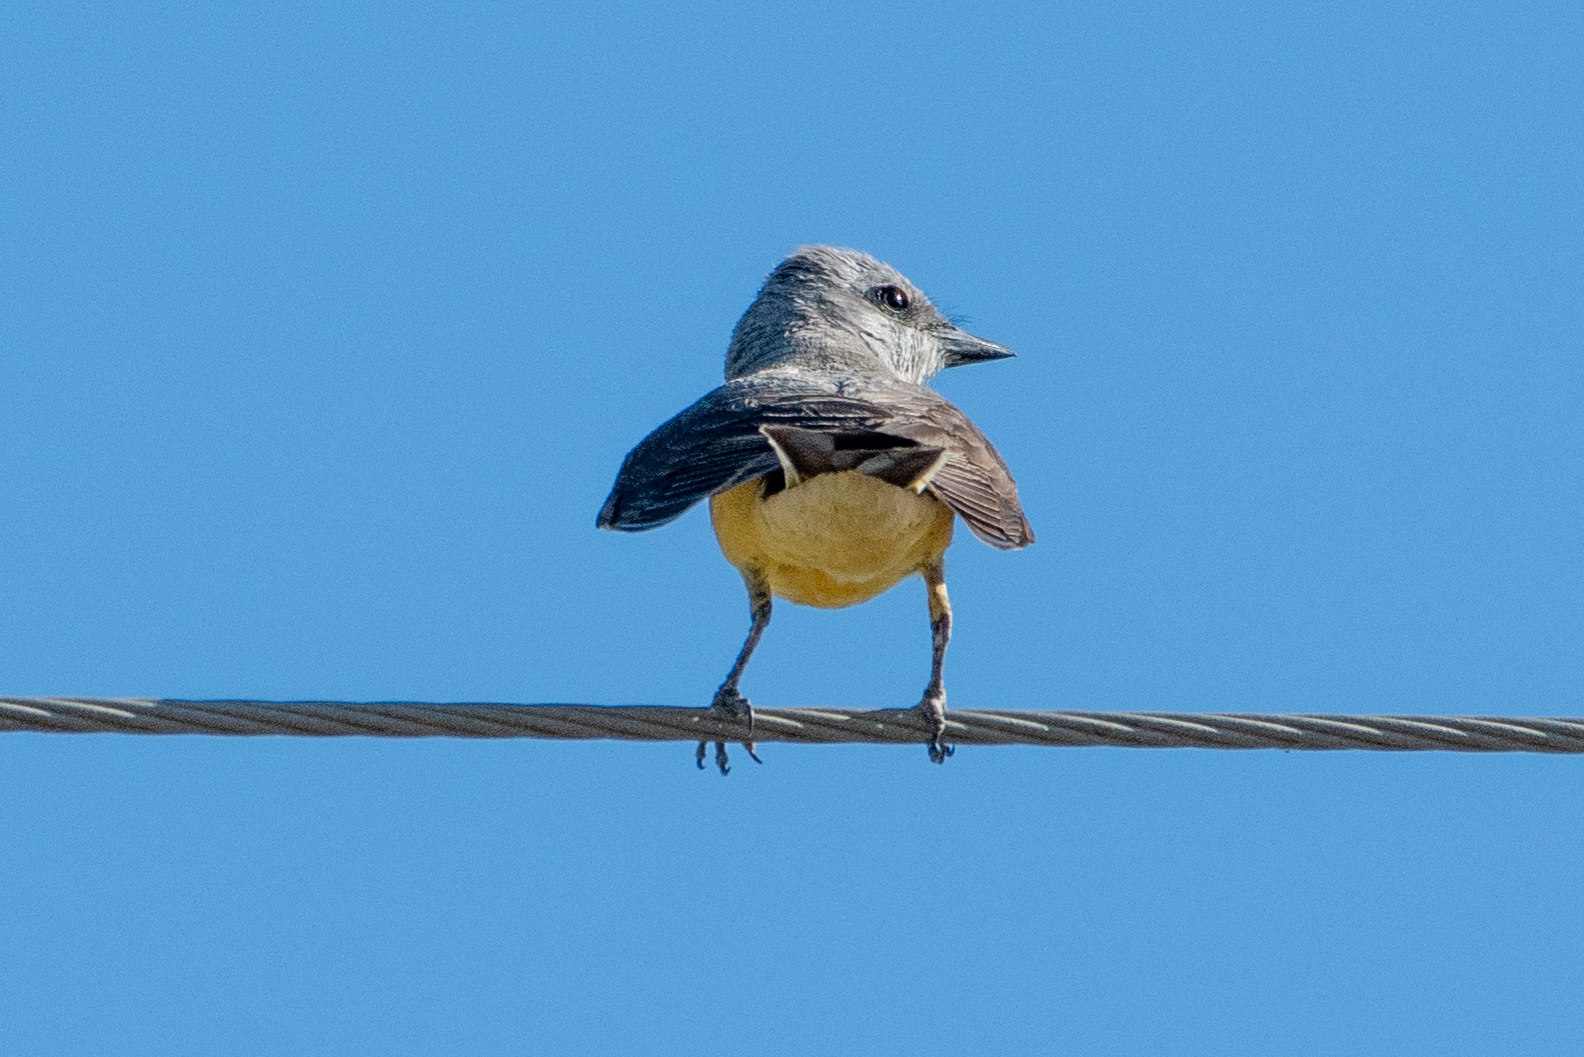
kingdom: Animalia
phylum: Chordata
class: Aves
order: Passeriformes
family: Tyrannidae
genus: Tyrannus
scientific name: Tyrannus verticalis
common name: Western kingbird
